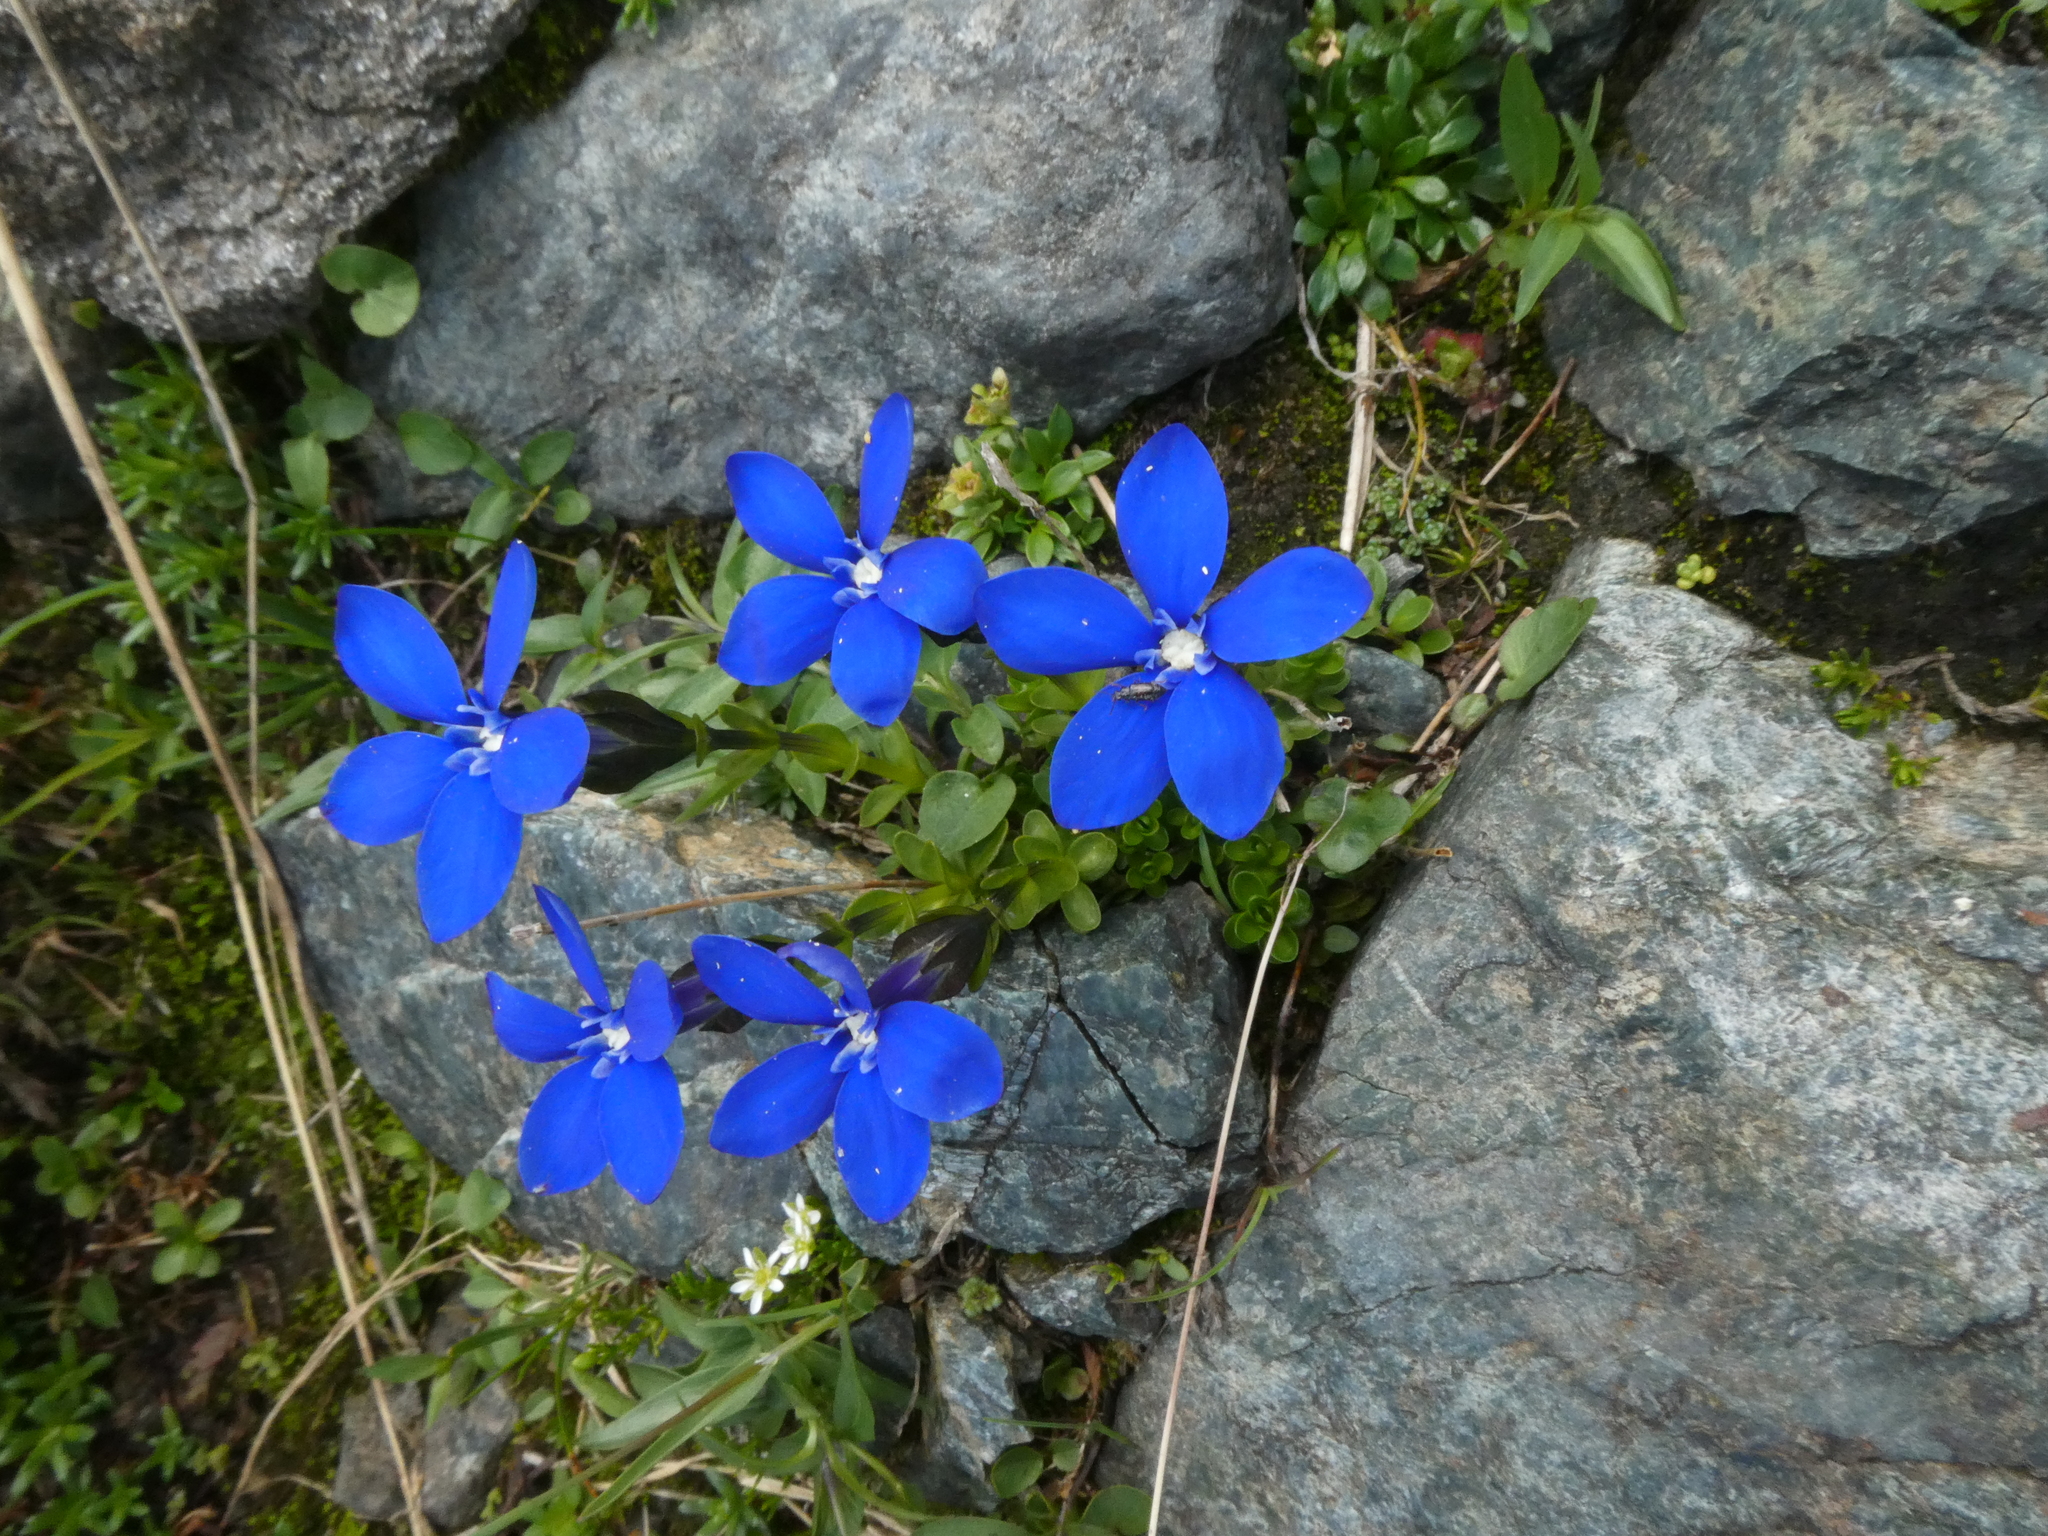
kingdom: Plantae
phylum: Tracheophyta
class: Magnoliopsida
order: Gentianales
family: Gentianaceae
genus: Gentiana
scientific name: Gentiana bavarica
